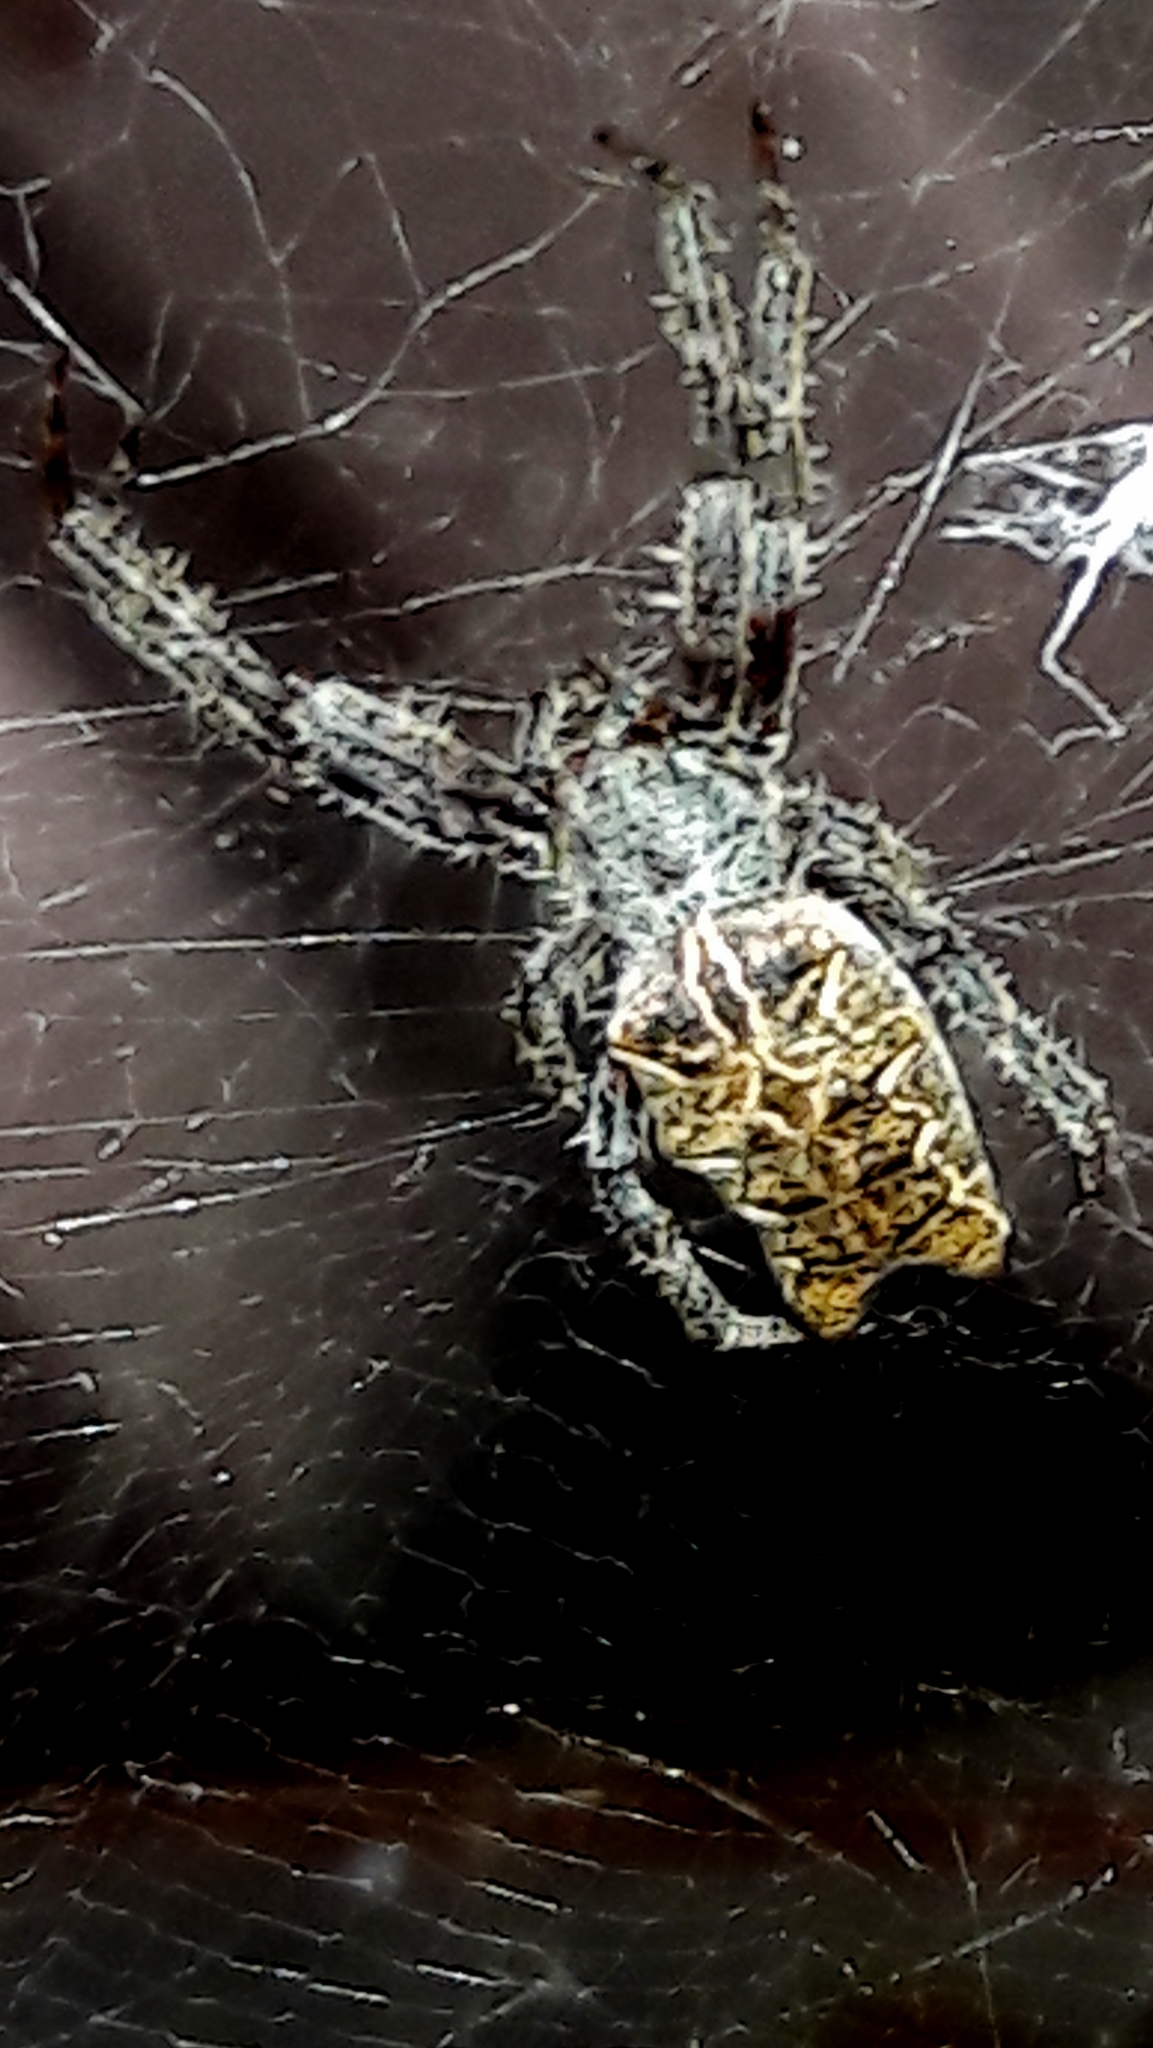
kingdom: Animalia
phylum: Arthropoda
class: Arachnida
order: Araneae
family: Araneidae
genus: Cyrtophora
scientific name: Cyrtophora citricola
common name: Orb weavers
